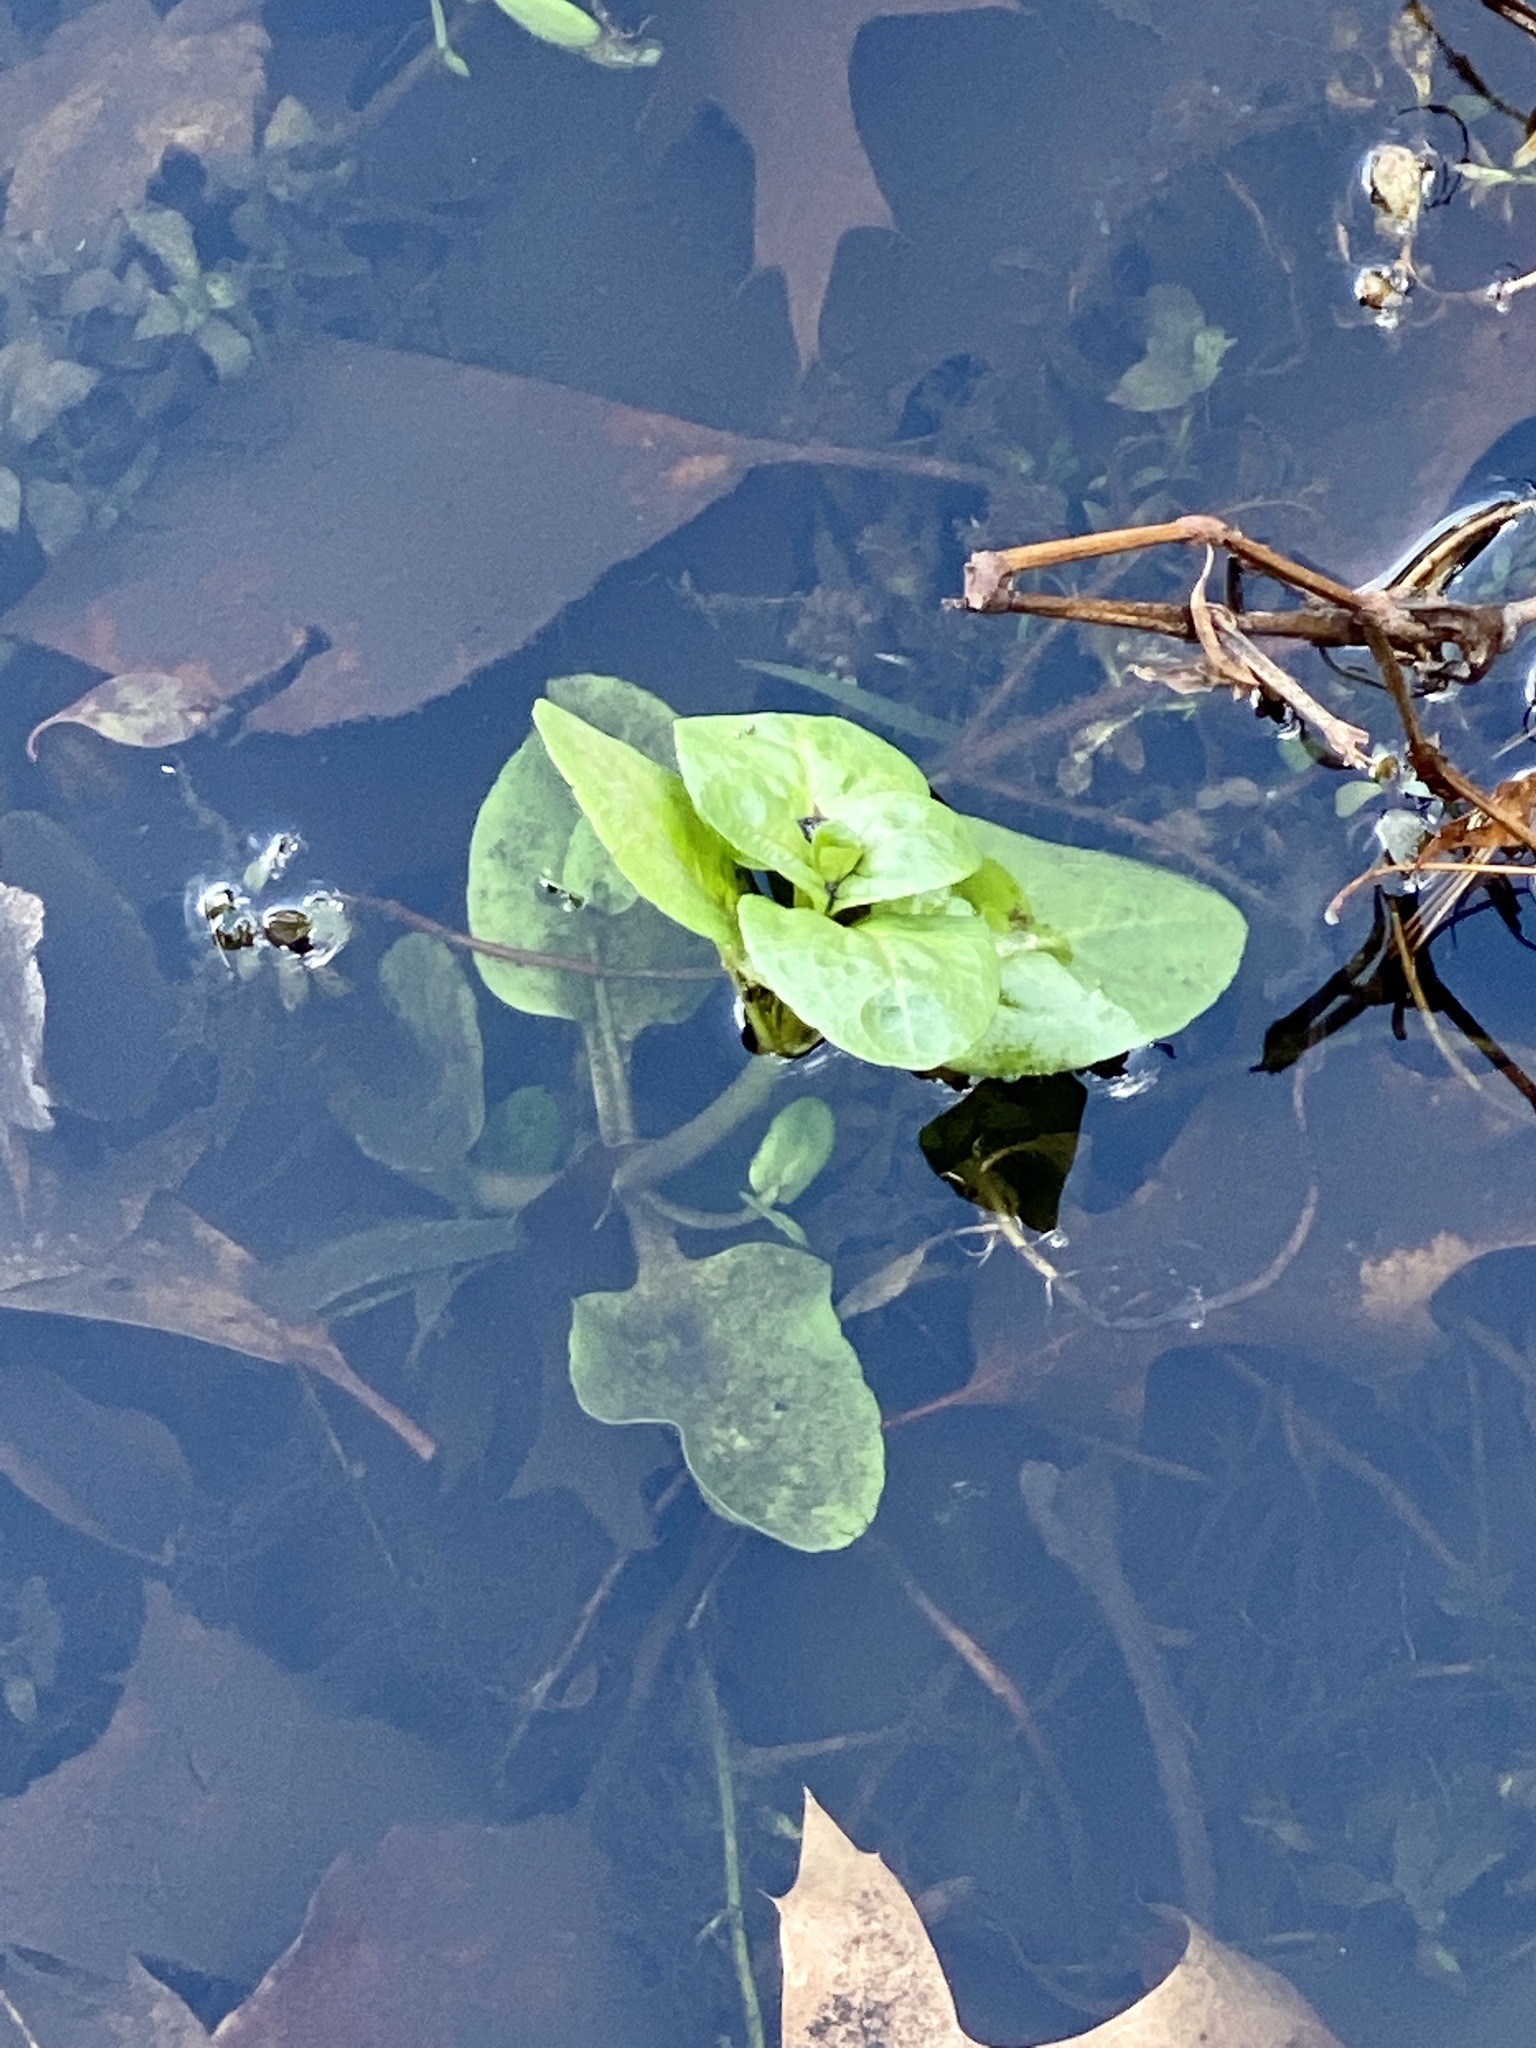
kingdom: Plantae
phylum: Tracheophyta
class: Magnoliopsida
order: Myrtales
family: Onagraceae
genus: Ludwigia
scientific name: Ludwigia palustris
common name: Hampshire-purslane
